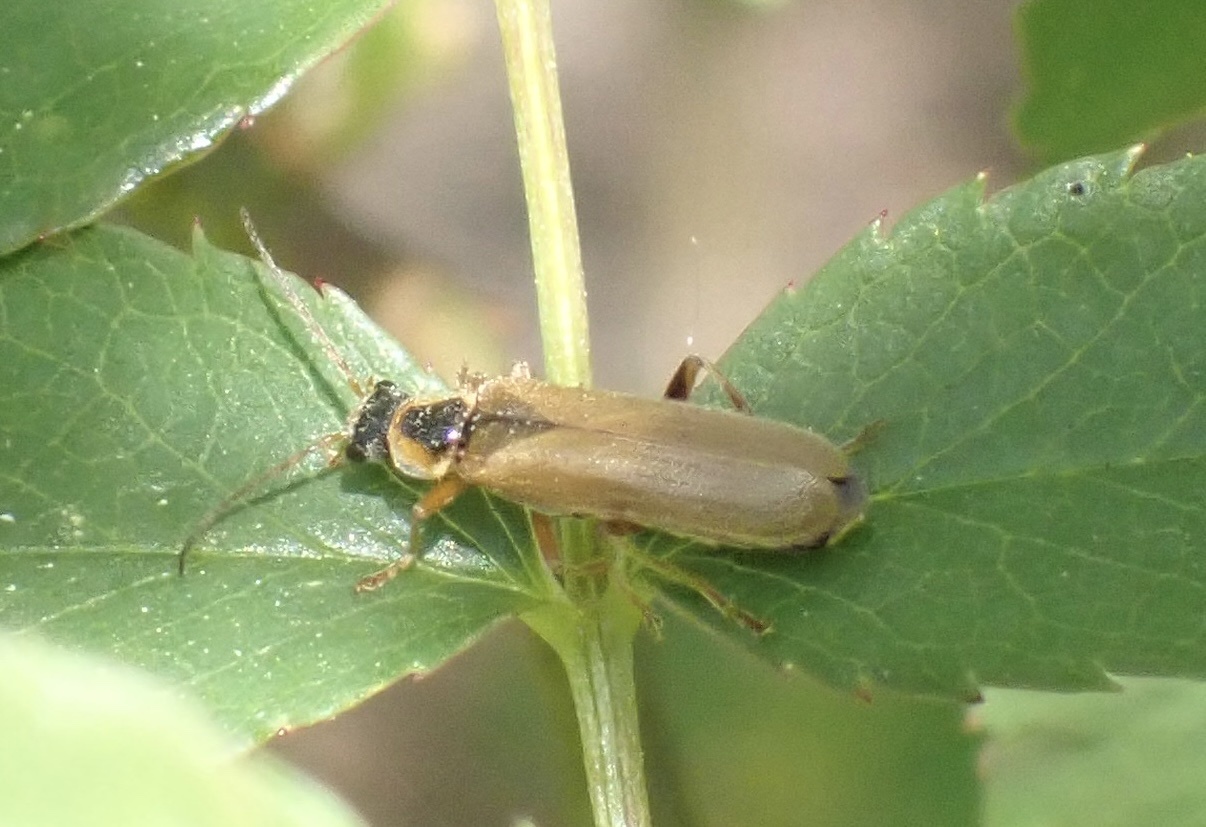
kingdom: Animalia
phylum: Arthropoda
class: Insecta
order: Coleoptera
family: Cantharidae
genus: Cantharis
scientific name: Cantharis decipiens
